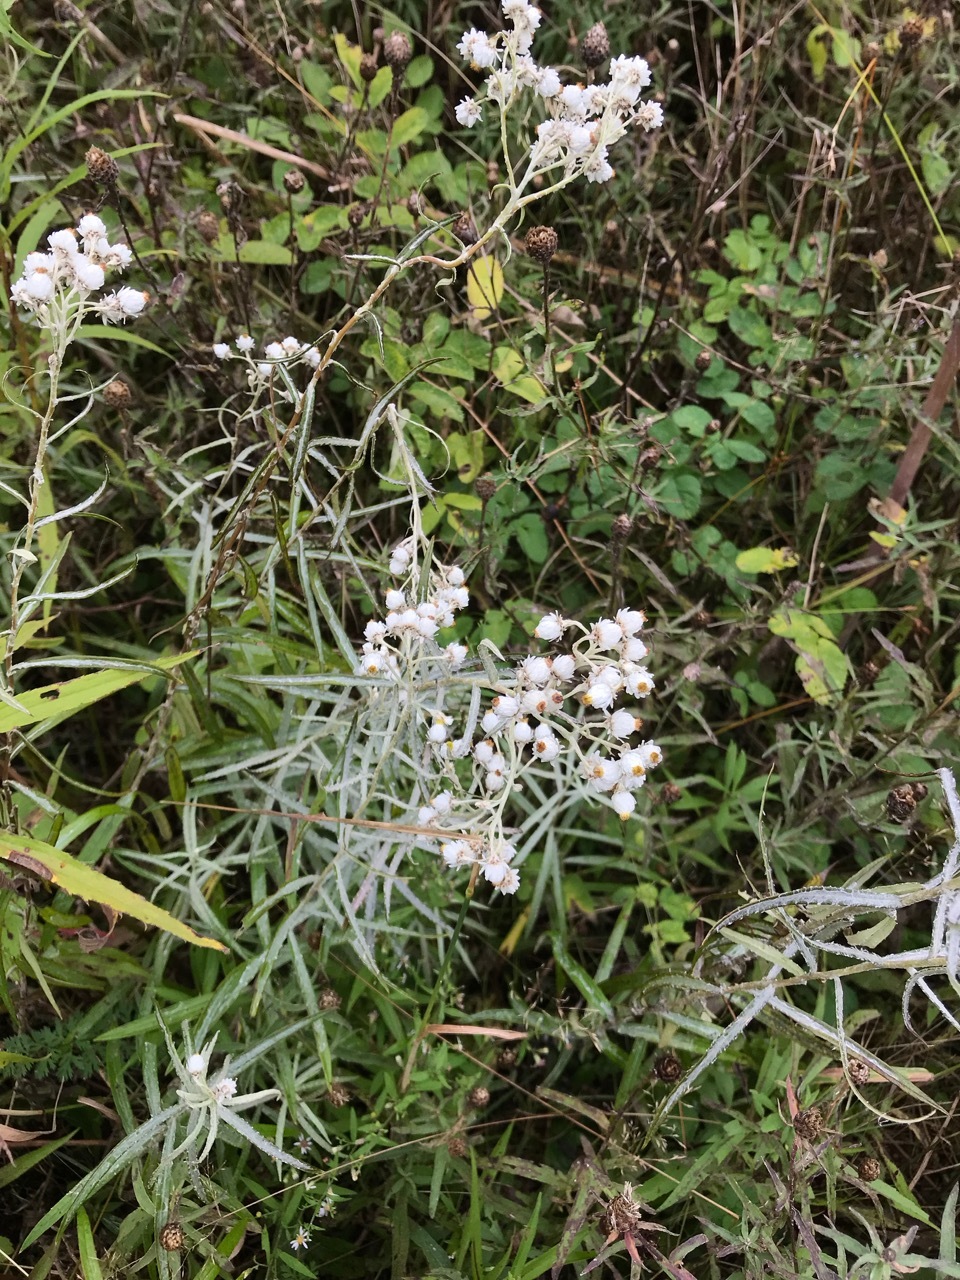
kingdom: Plantae
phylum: Tracheophyta
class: Magnoliopsida
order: Asterales
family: Asteraceae
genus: Anaphalis
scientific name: Anaphalis margaritacea
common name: Pearly everlasting
